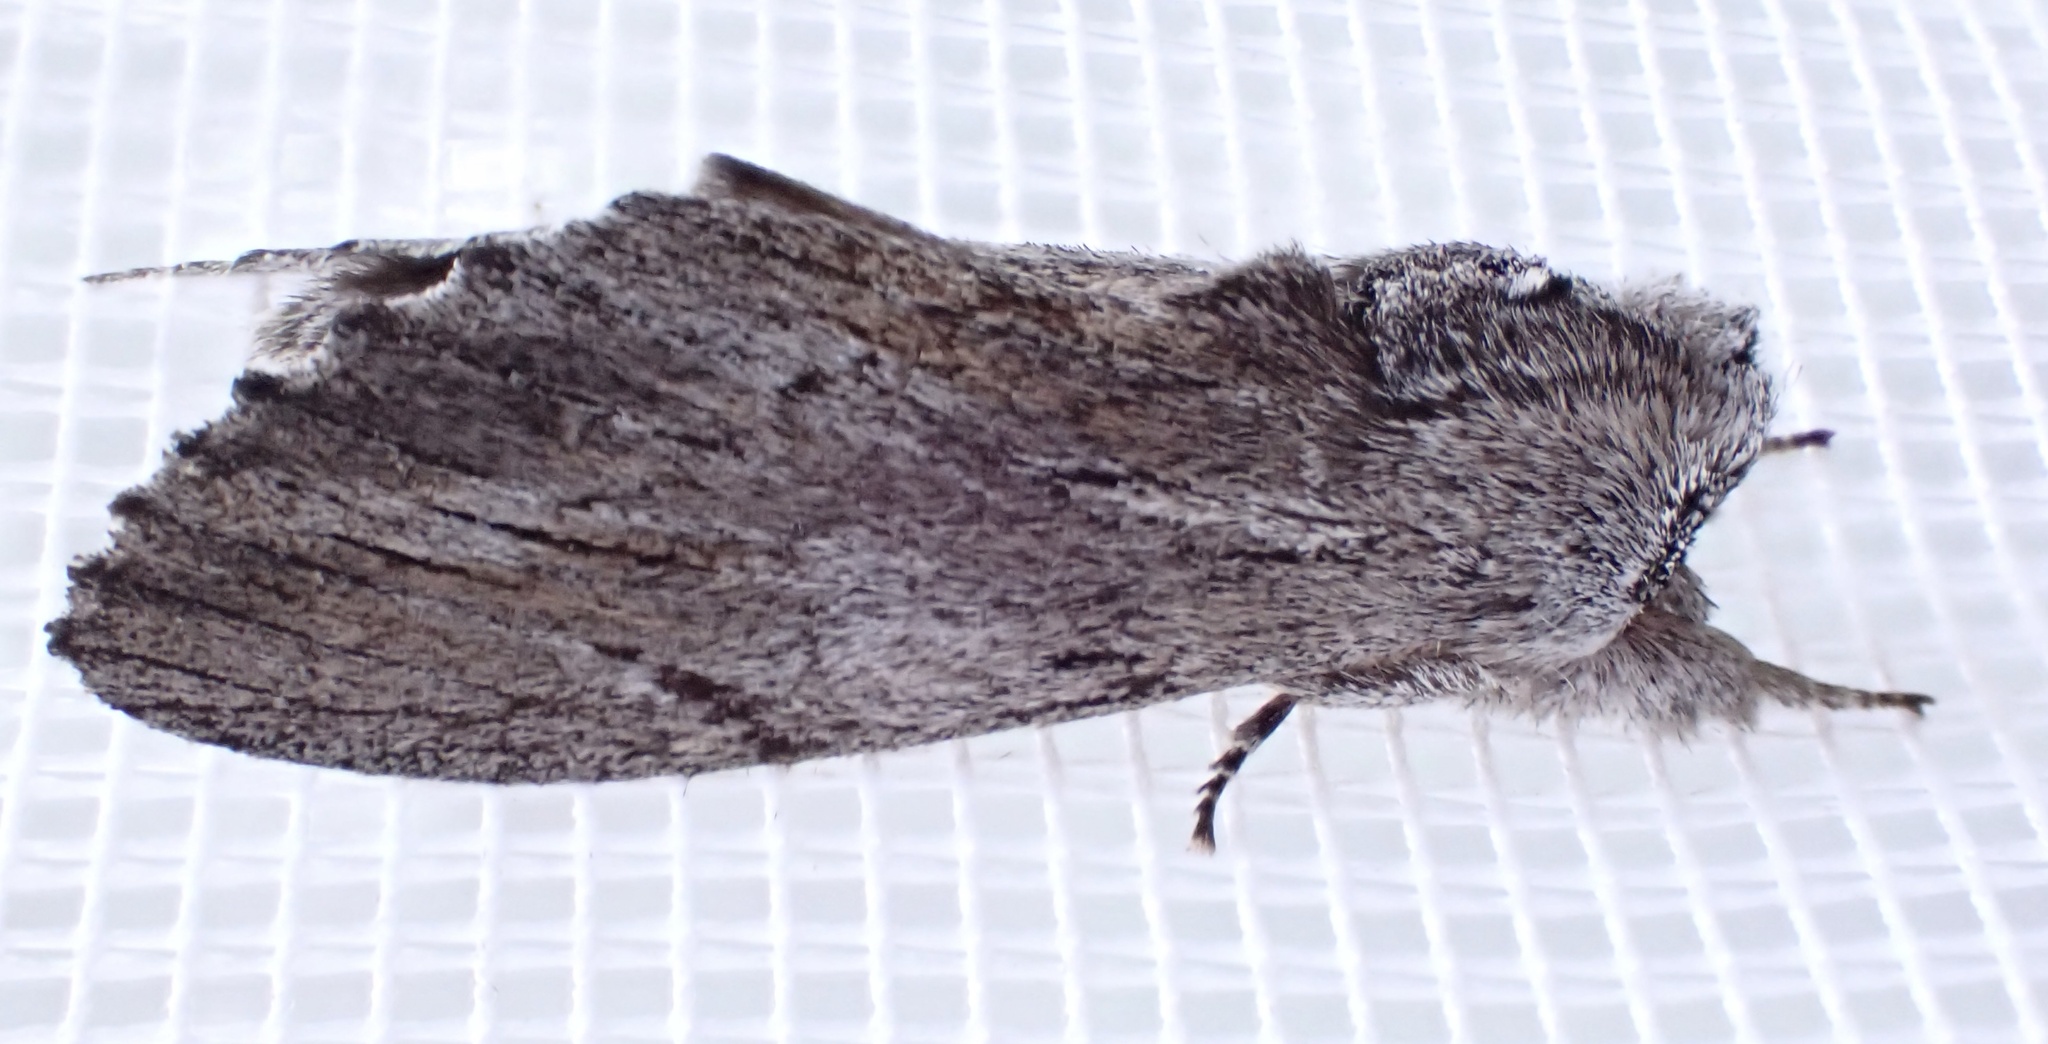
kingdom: Animalia
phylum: Arthropoda
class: Insecta
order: Lepidoptera
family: Notodontidae
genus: Destolmia
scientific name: Destolmia lineata
